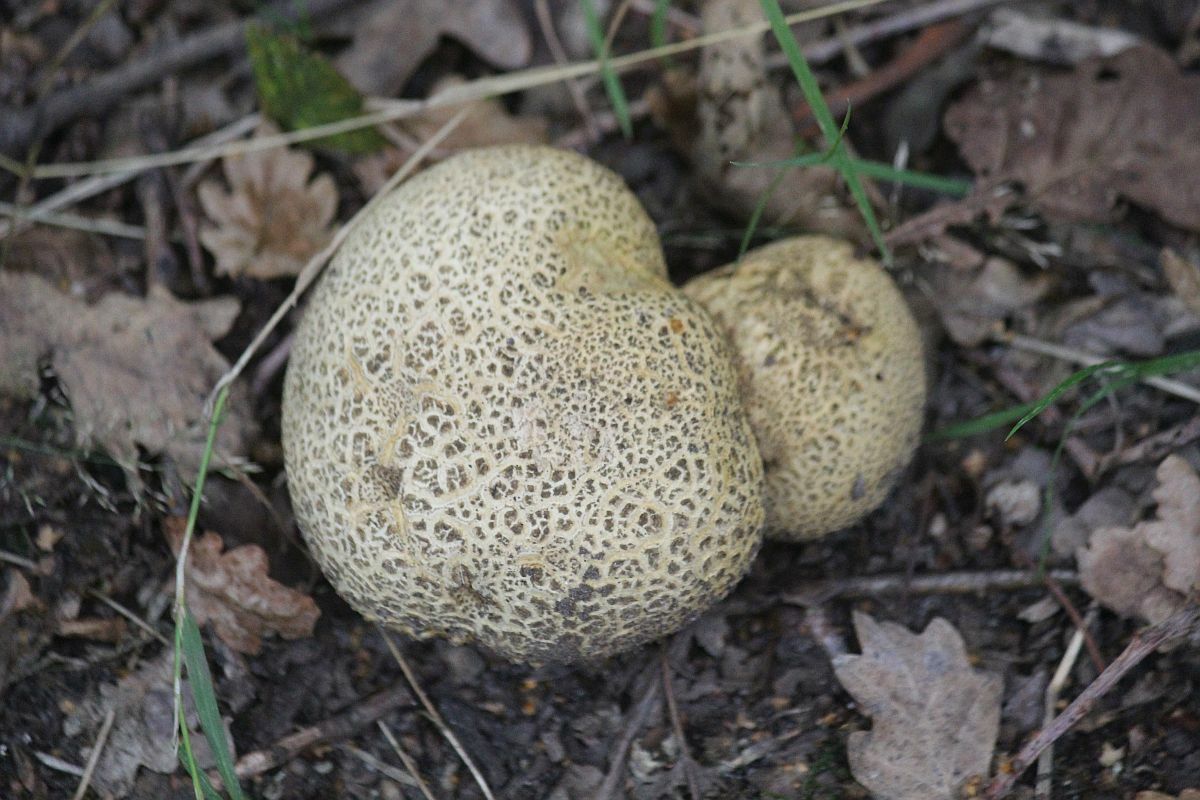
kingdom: Fungi
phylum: Basidiomycota
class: Agaricomycetes
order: Boletales
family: Sclerodermataceae
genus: Scleroderma
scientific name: Scleroderma citrinum
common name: Common earthball
